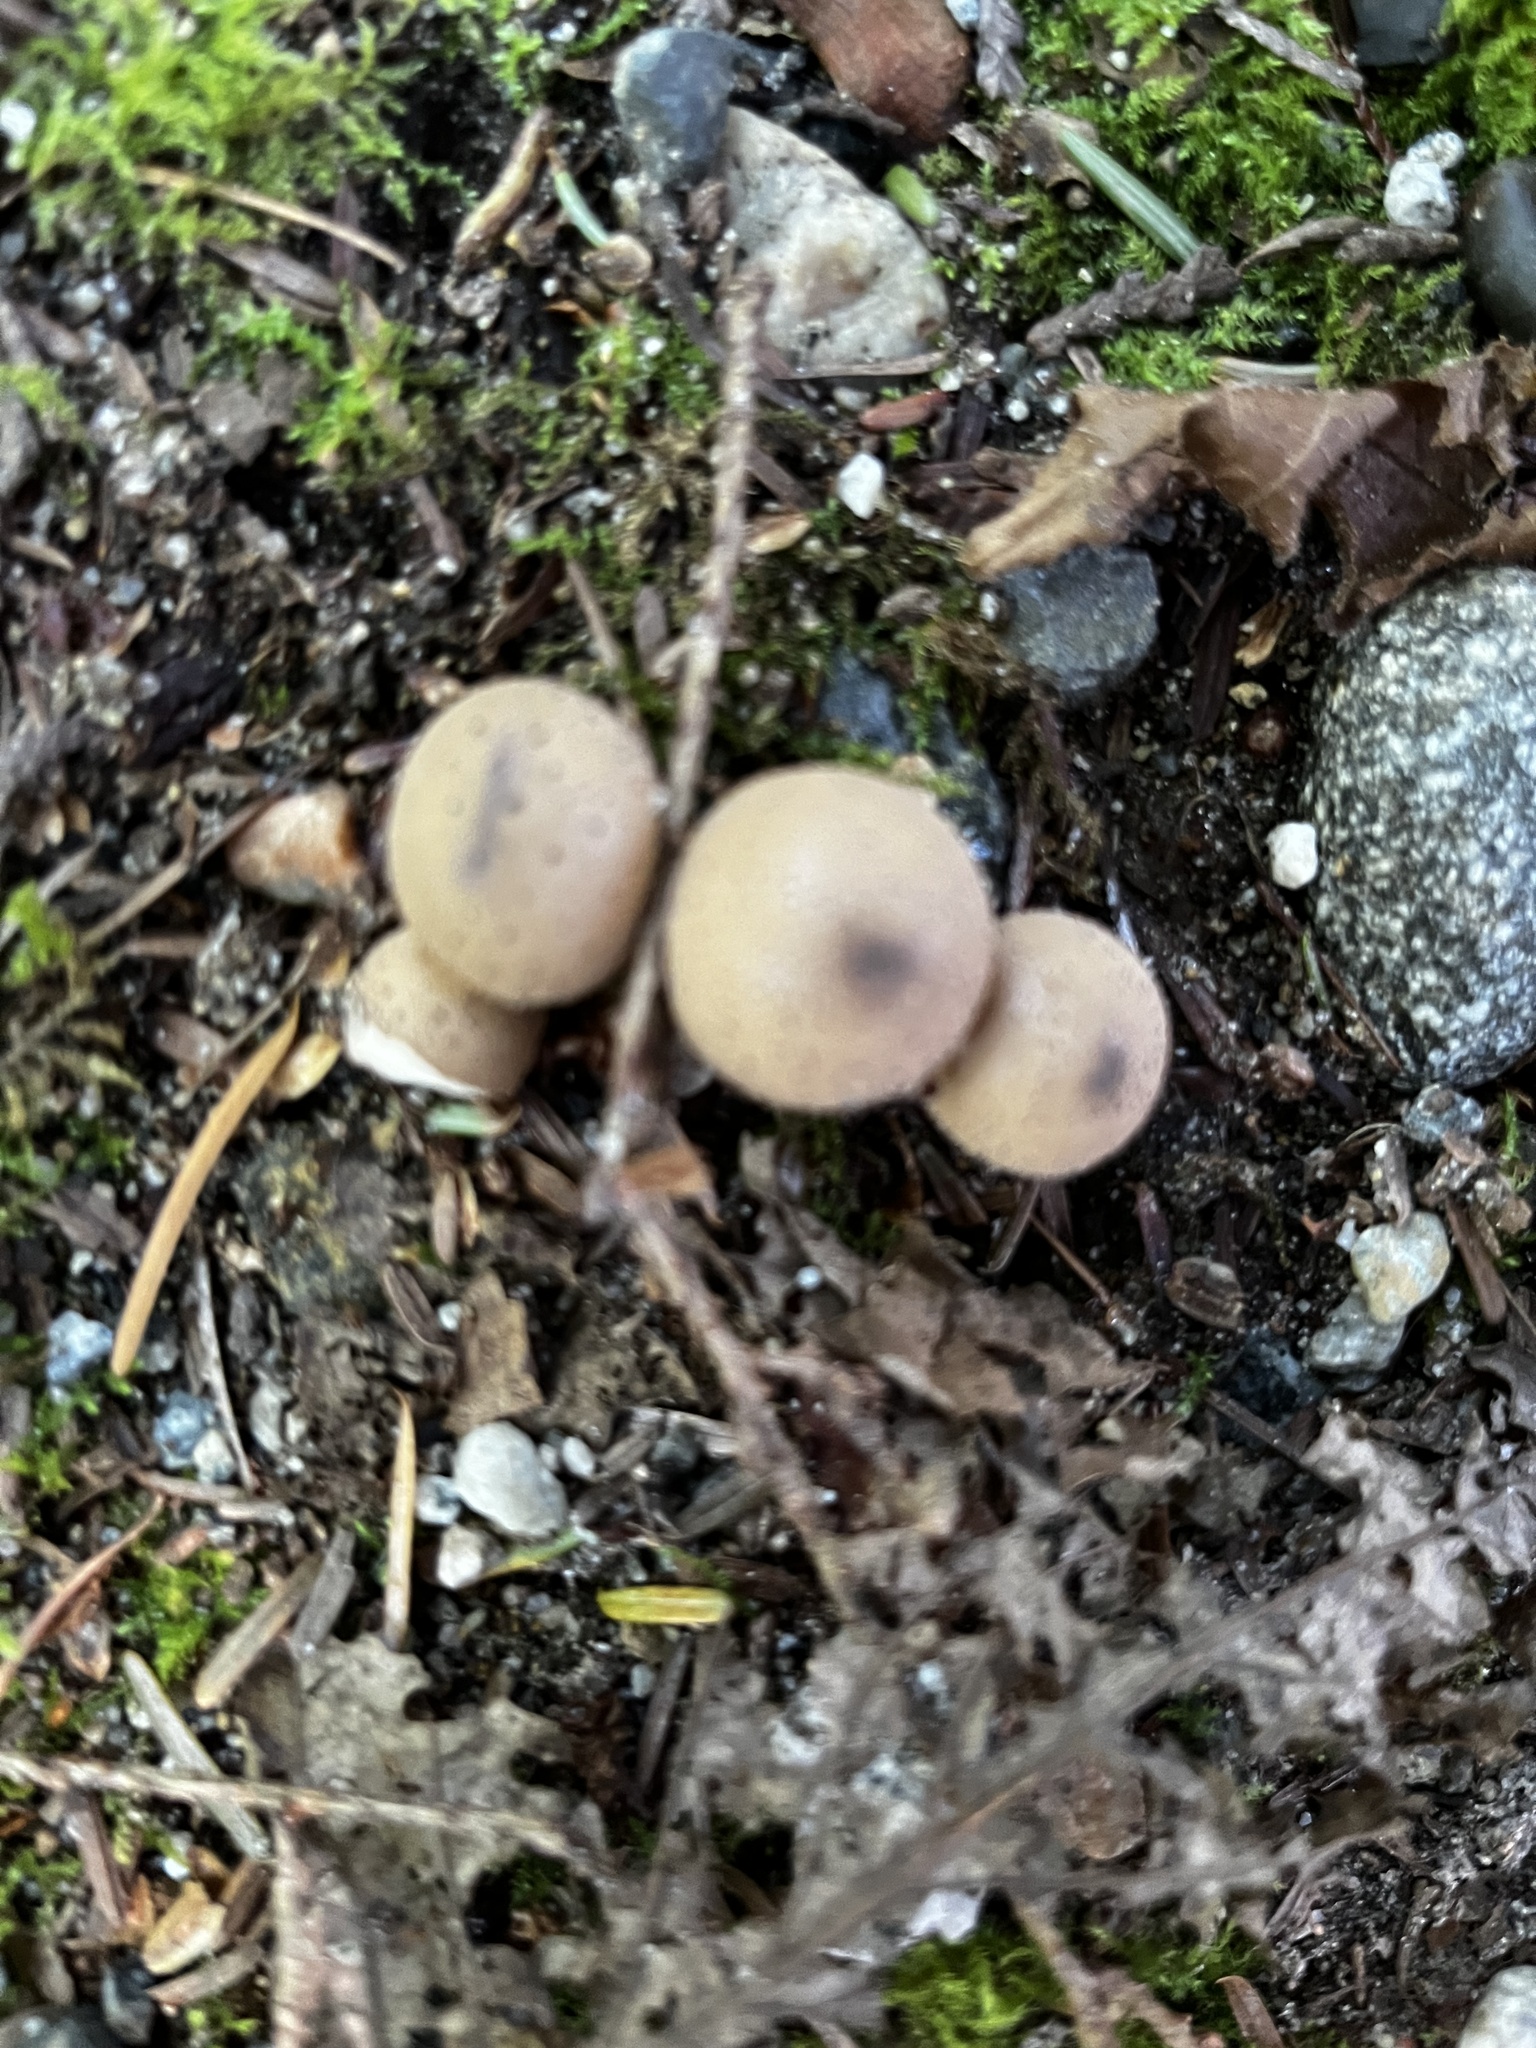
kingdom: Fungi
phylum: Basidiomycota
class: Agaricomycetes
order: Agaricales
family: Lycoperdaceae
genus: Apioperdon
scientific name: Apioperdon pyriforme
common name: Pear-shaped puffball
